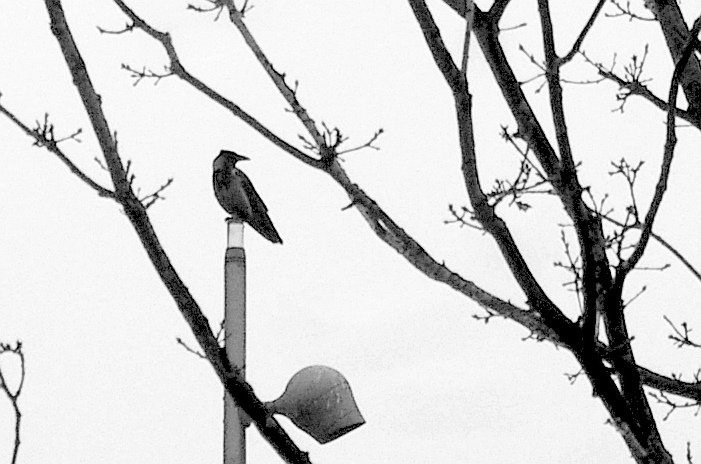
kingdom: Animalia
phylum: Chordata
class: Aves
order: Passeriformes
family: Corvidae
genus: Corvus
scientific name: Corvus cornix
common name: Hooded crow
